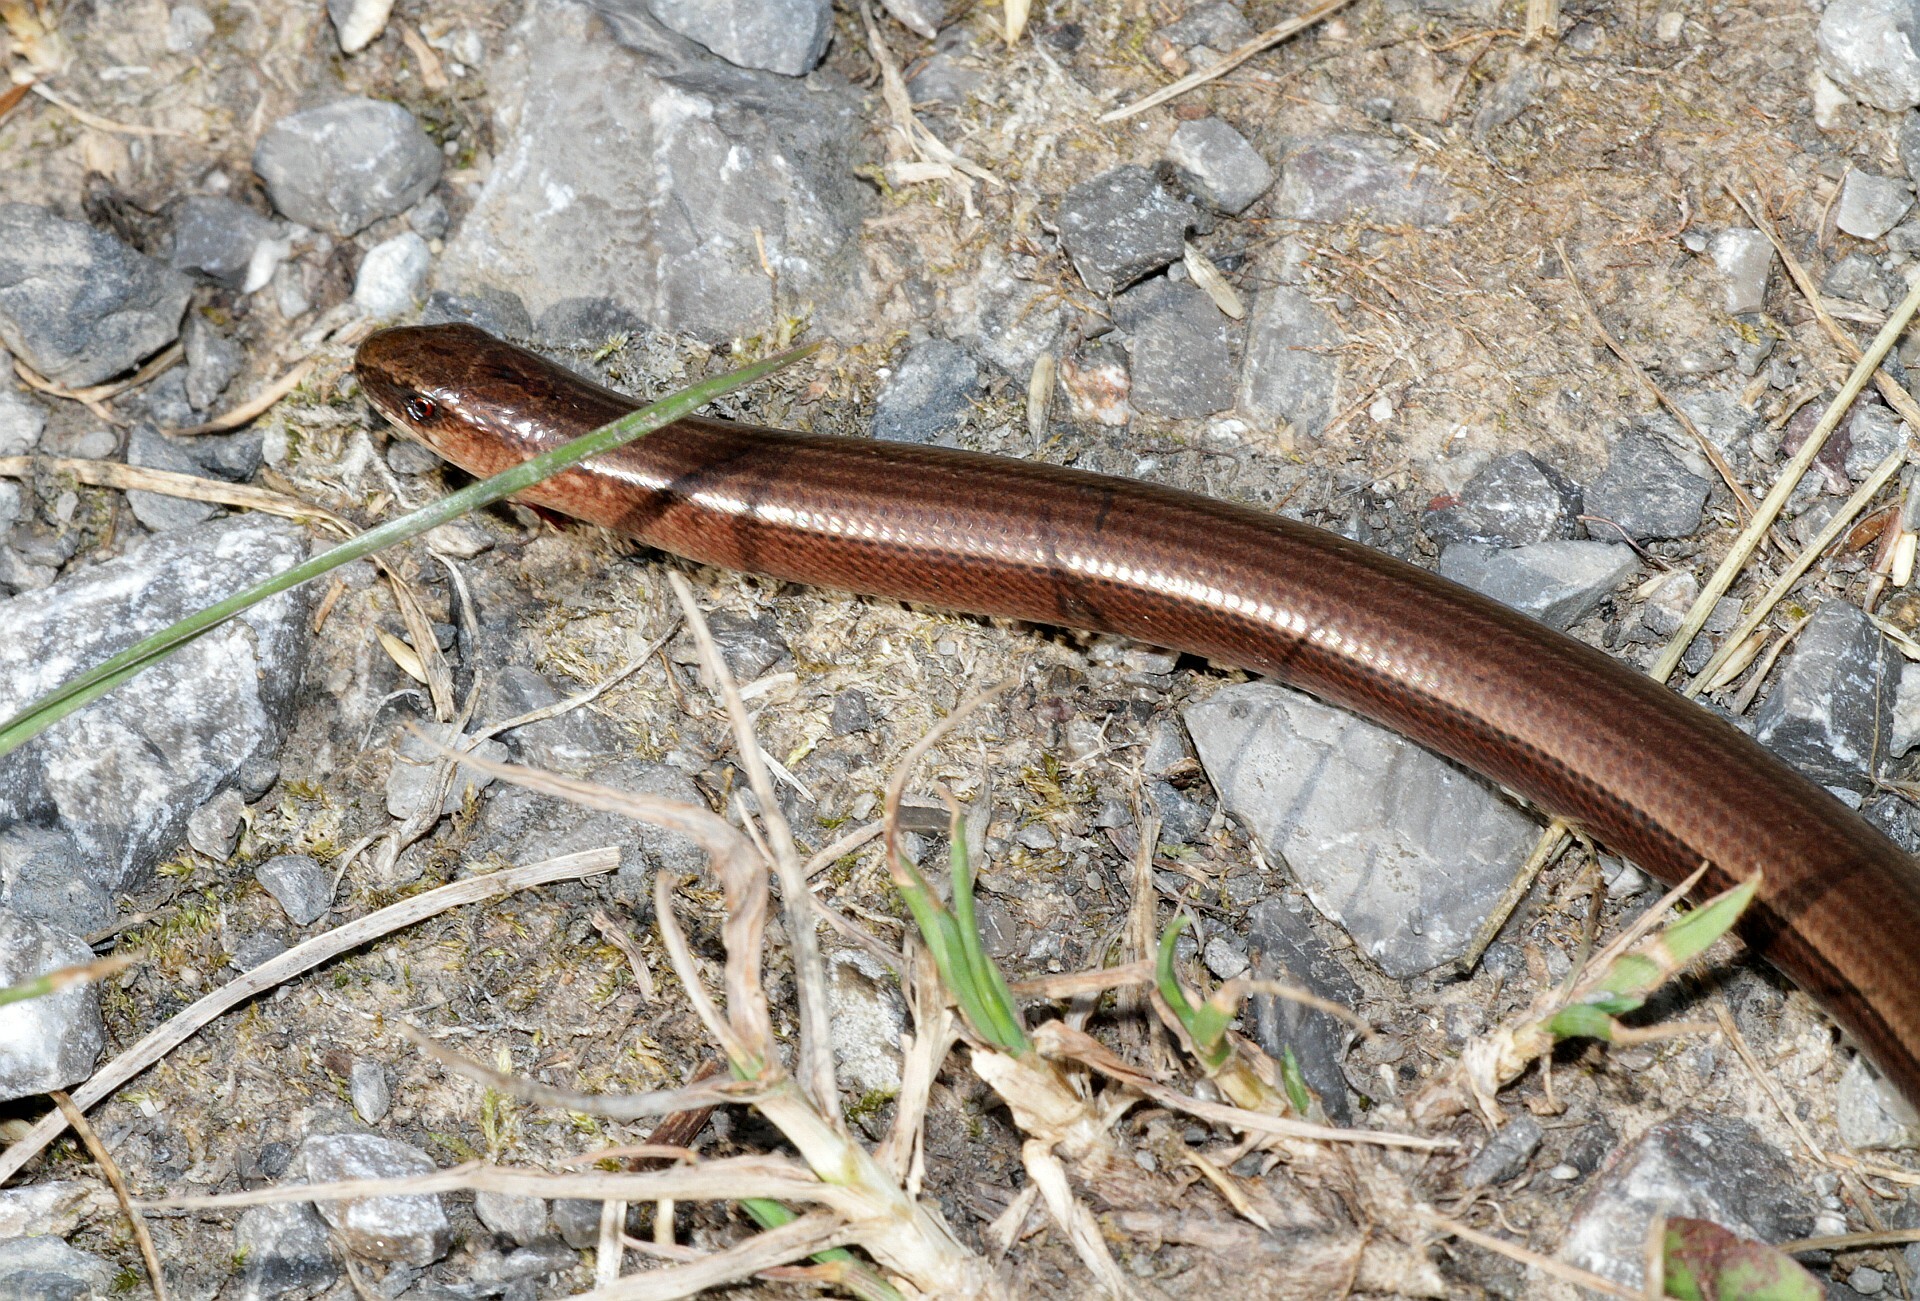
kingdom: Animalia
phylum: Chordata
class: Squamata
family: Anguidae
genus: Anguis
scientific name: Anguis fragilis
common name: Slow worm
